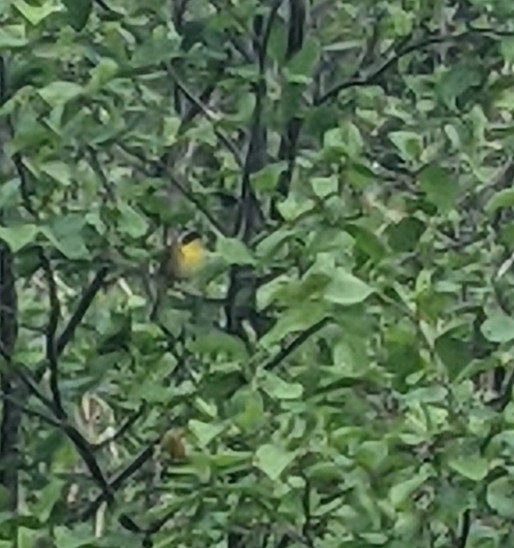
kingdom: Animalia
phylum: Chordata
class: Aves
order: Passeriformes
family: Parulidae
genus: Geothlypis
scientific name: Geothlypis trichas
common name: Common yellowthroat
